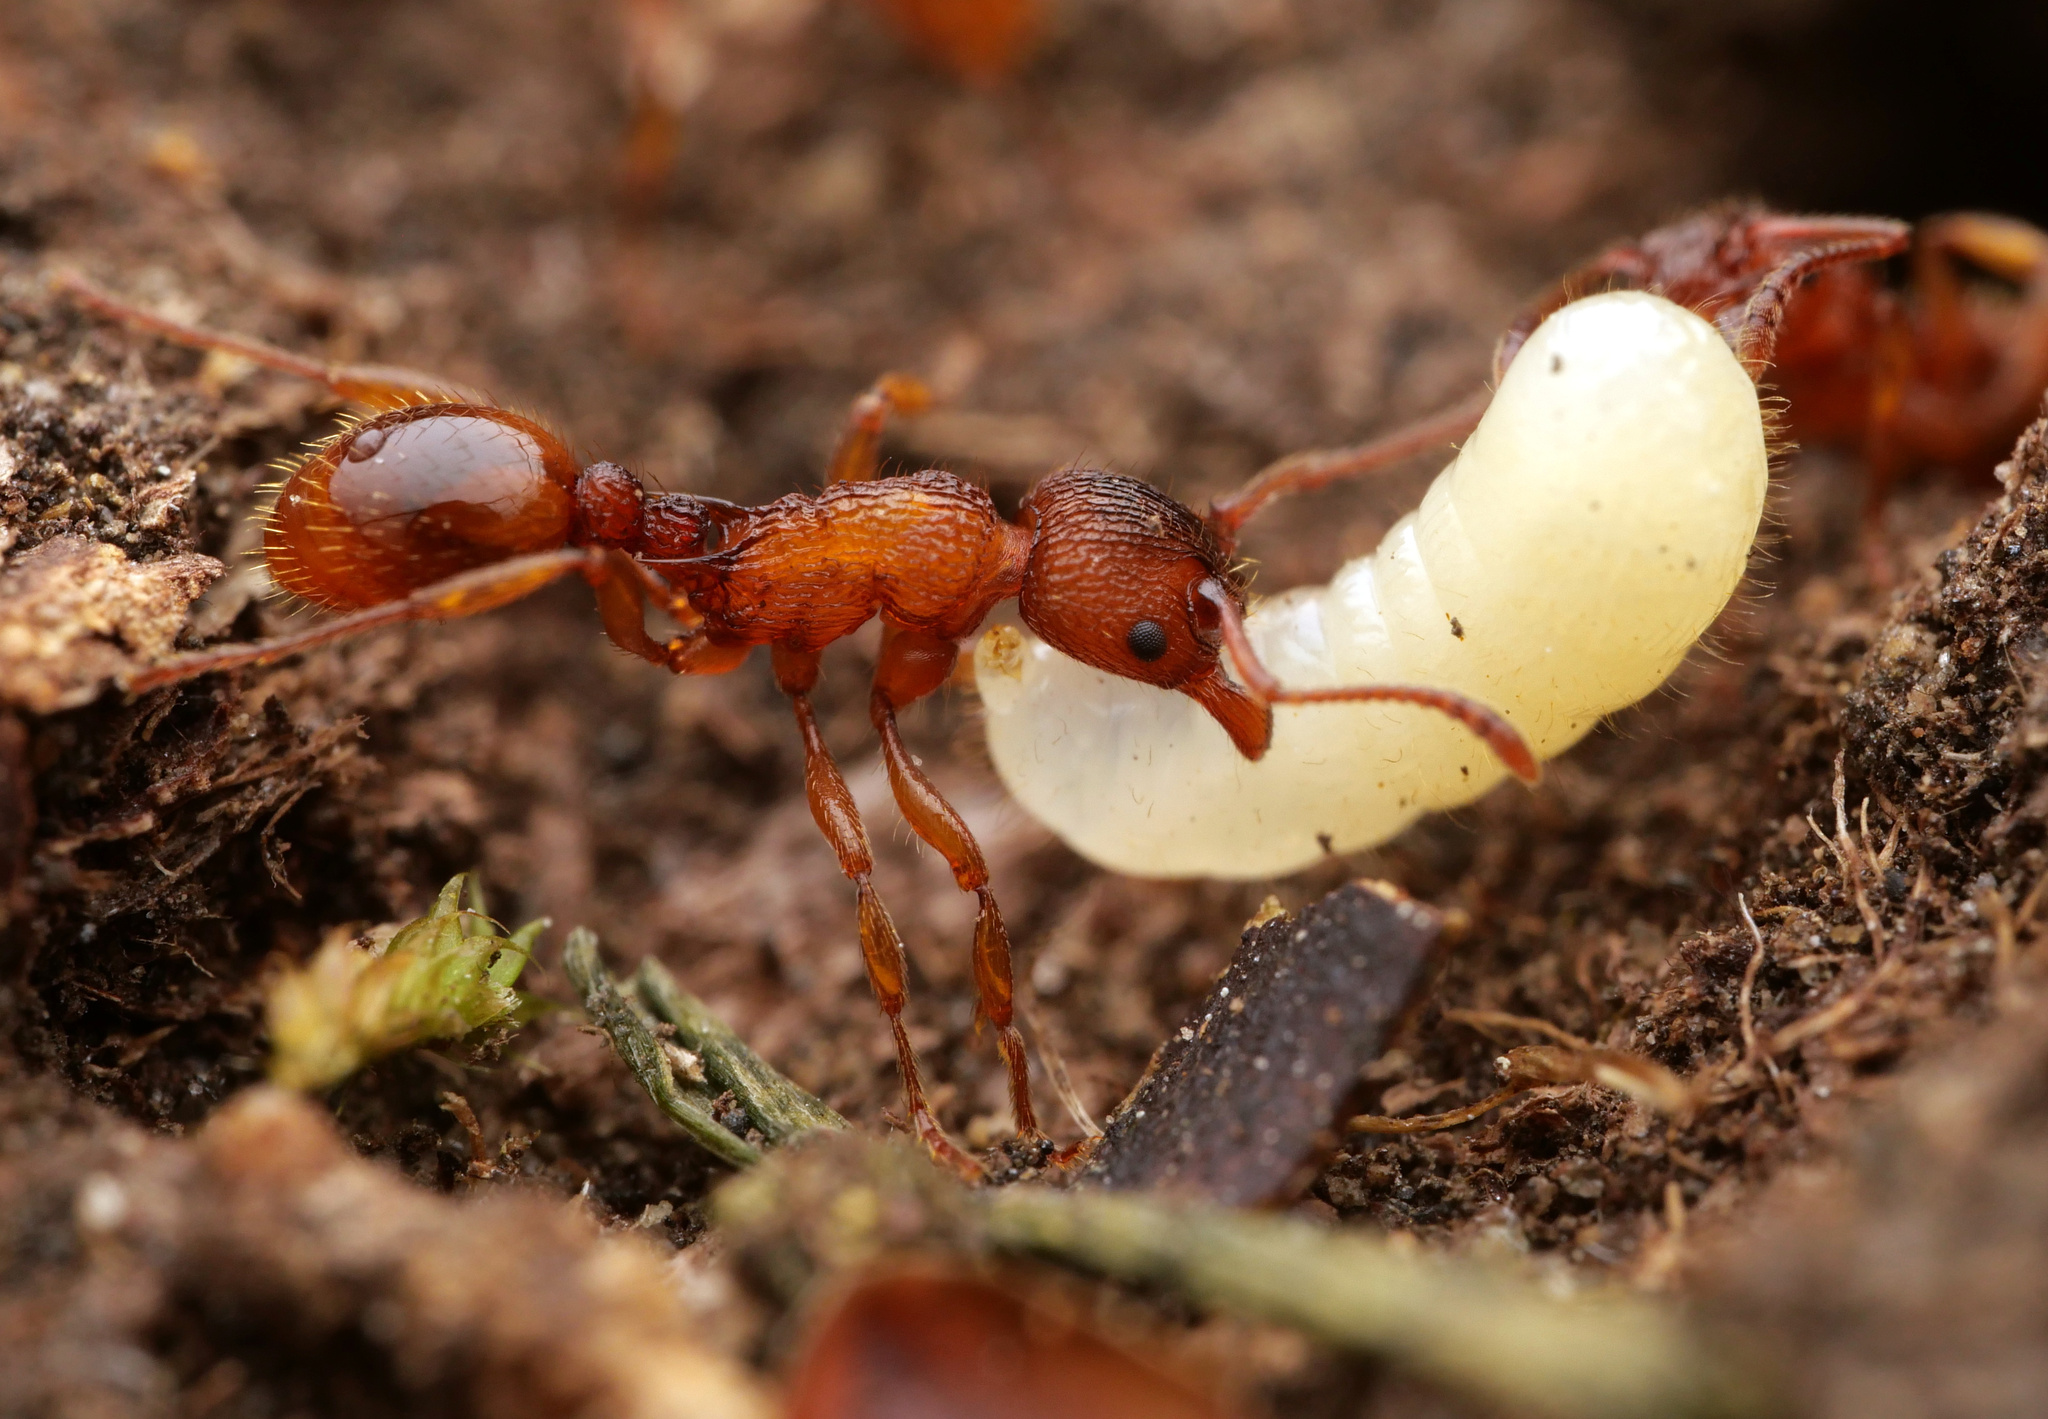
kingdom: Animalia
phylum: Arthropoda
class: Insecta
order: Hymenoptera
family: Formicidae
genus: Myrmica
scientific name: Myrmica sabuleti
